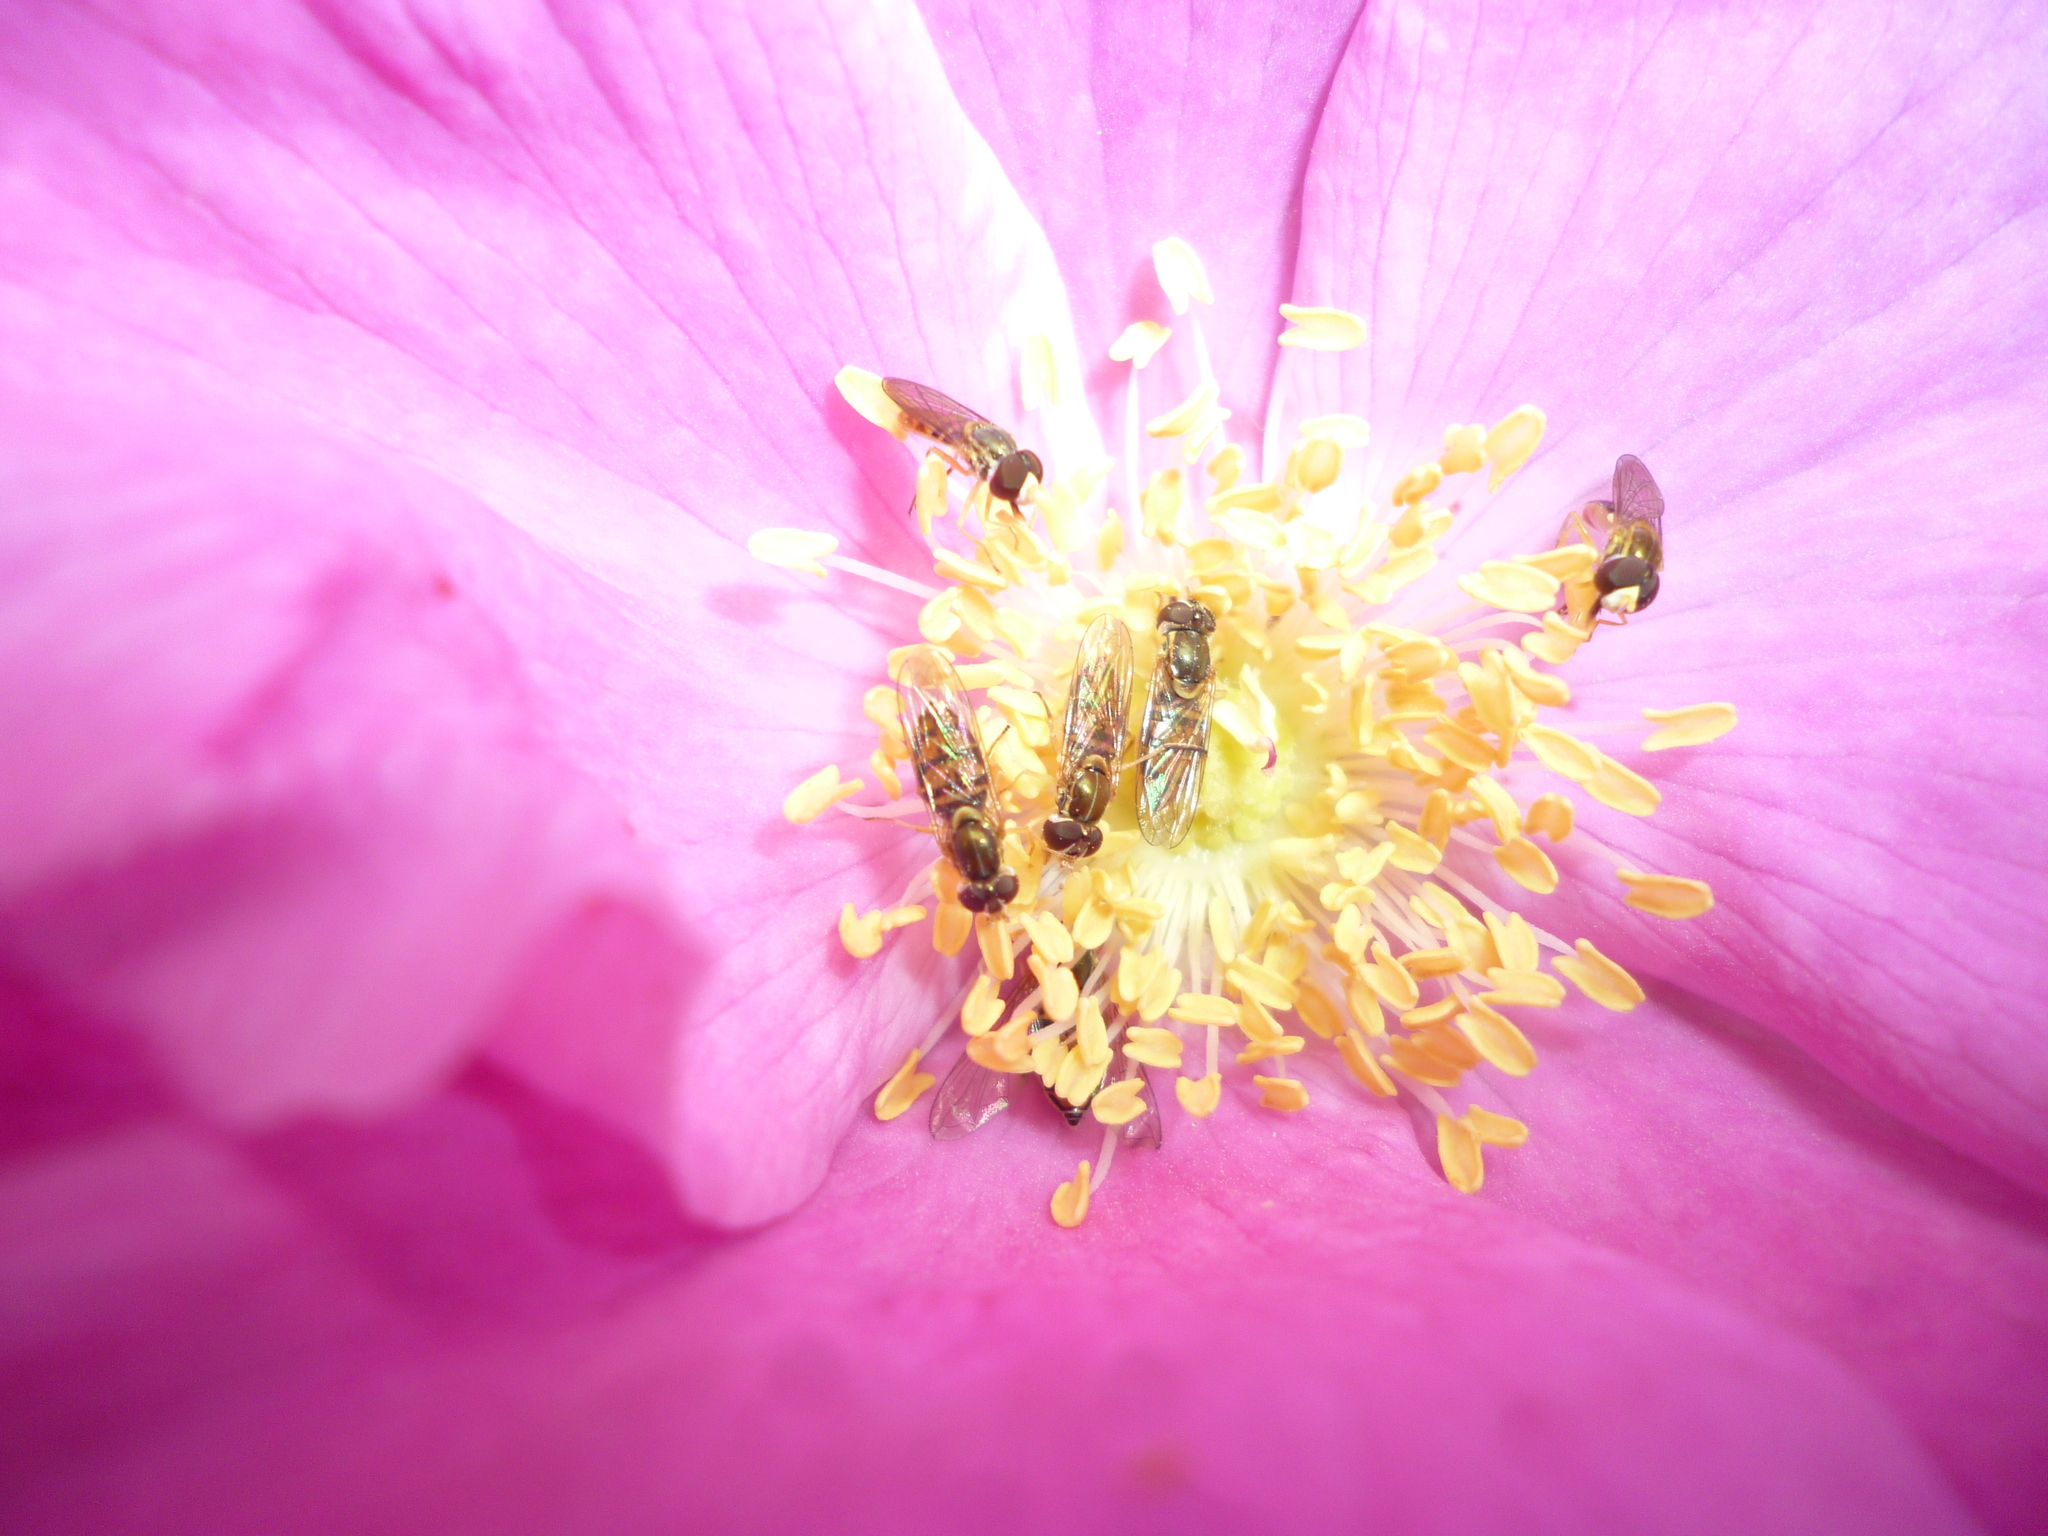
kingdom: Animalia
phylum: Arthropoda
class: Insecta
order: Diptera
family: Syrphidae
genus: Toxomerus
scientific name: Toxomerus marginatus
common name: Syrphid fly
